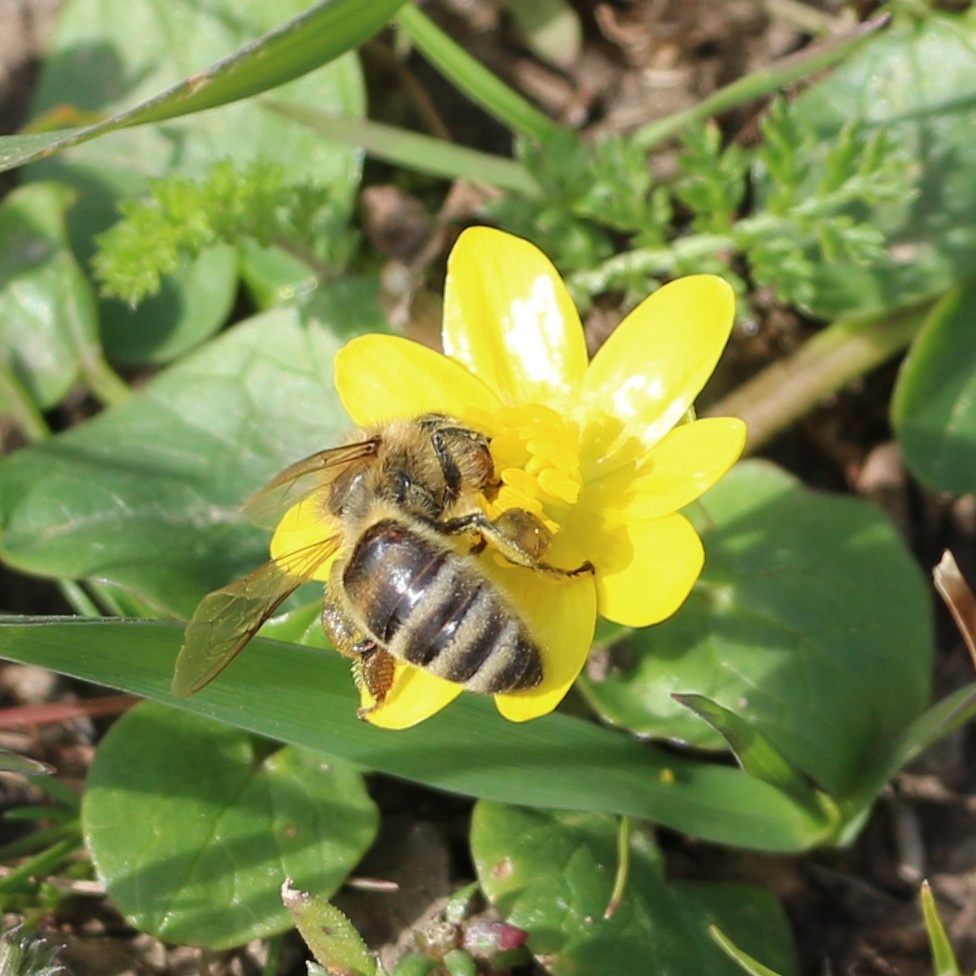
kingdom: Animalia
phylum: Arthropoda
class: Insecta
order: Hymenoptera
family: Apidae
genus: Apis
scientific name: Apis mellifera
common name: Honey bee
